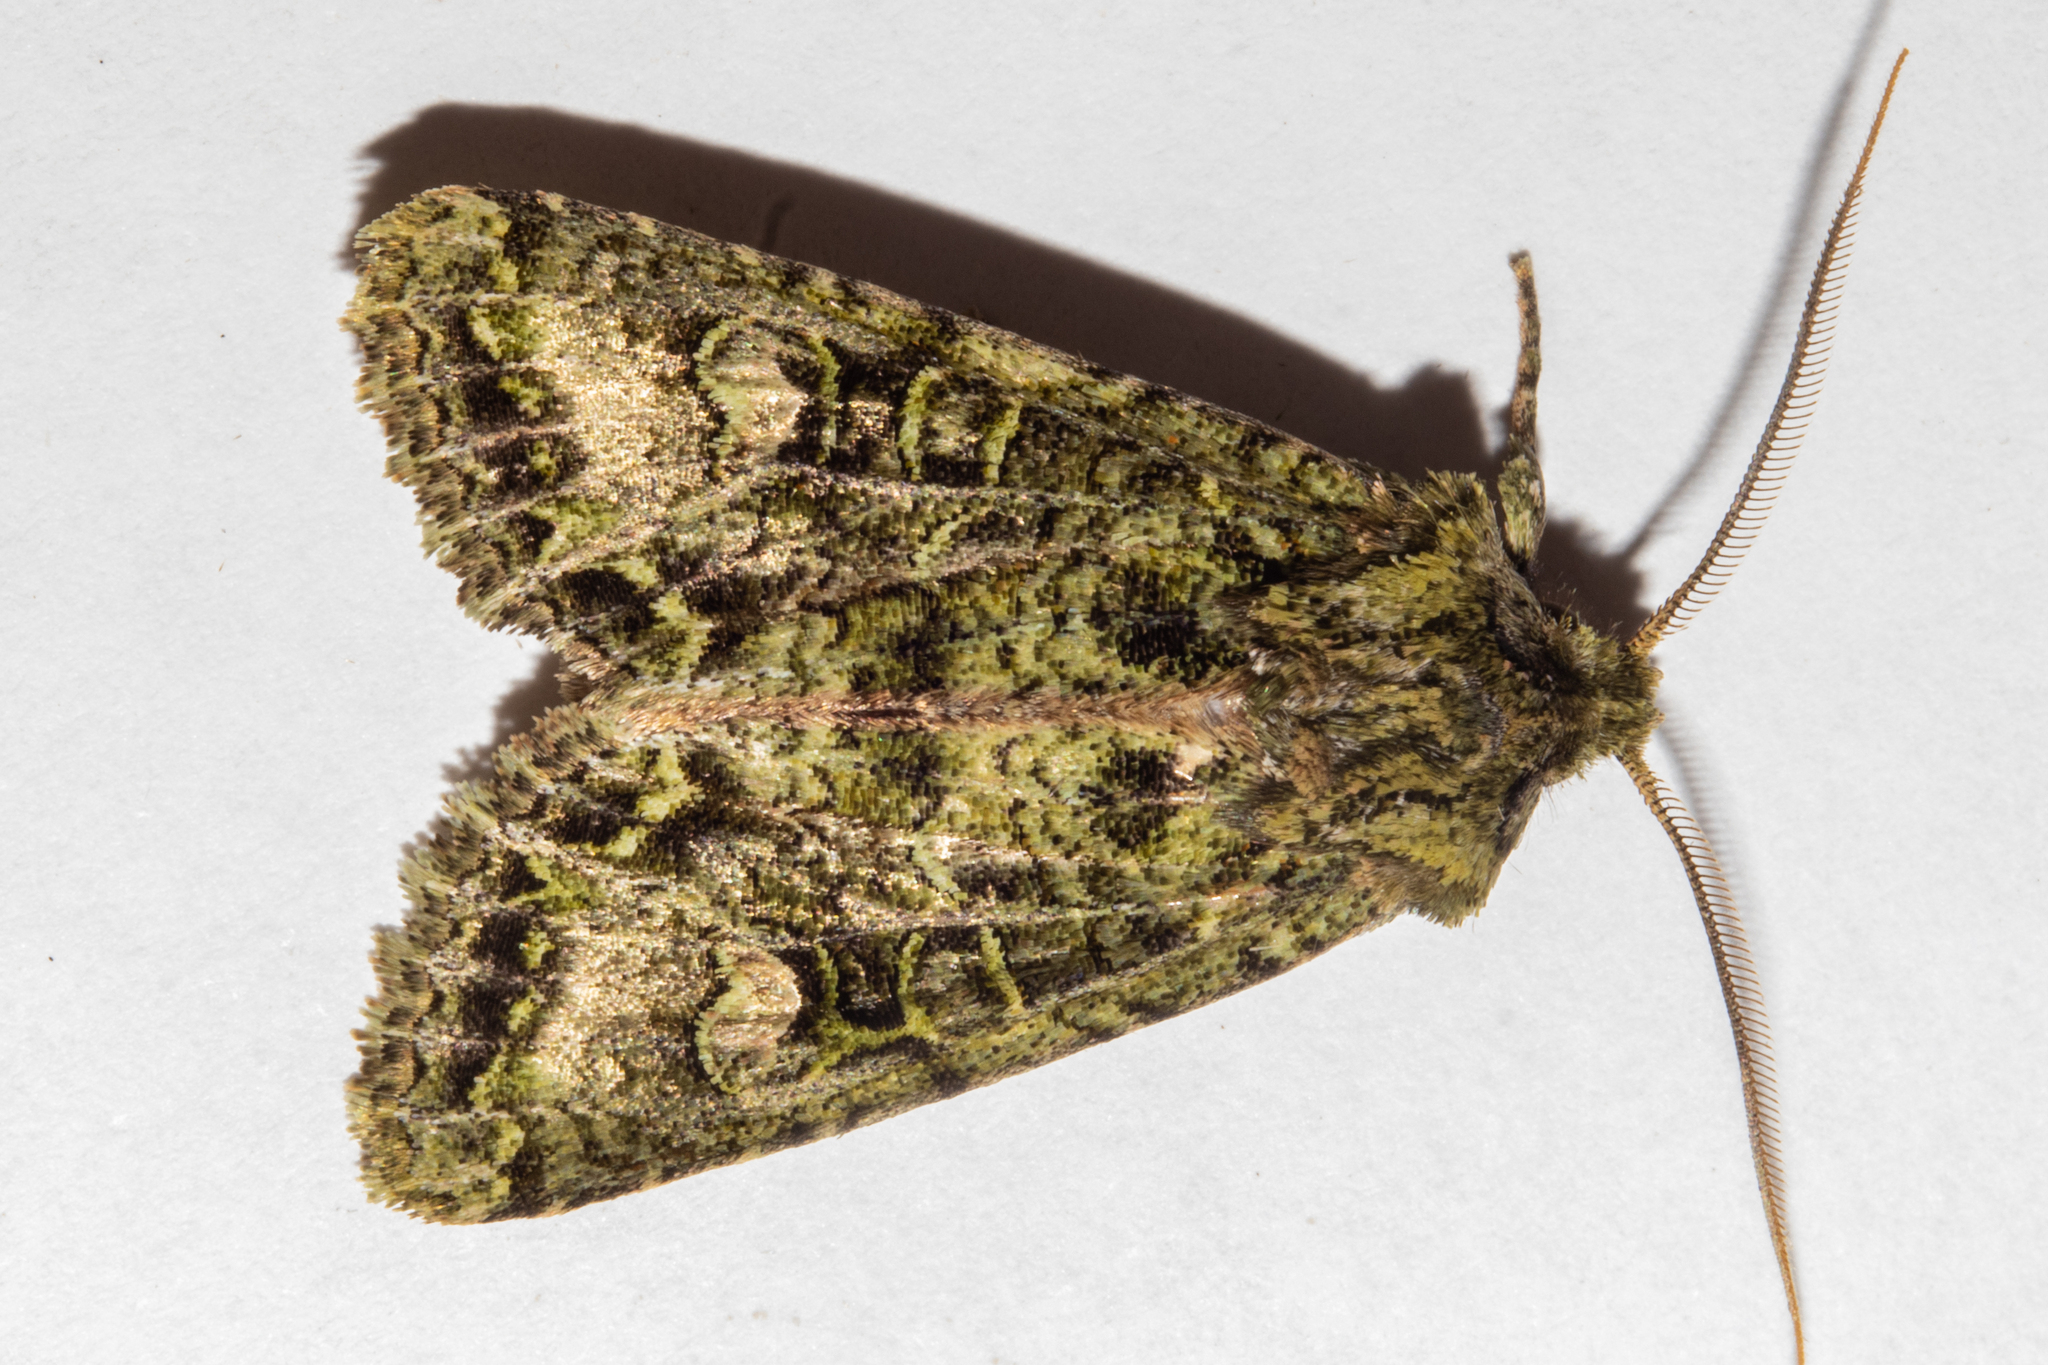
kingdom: Animalia
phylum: Arthropoda
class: Insecta
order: Lepidoptera
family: Noctuidae
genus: Ichneutica
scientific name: Ichneutica
